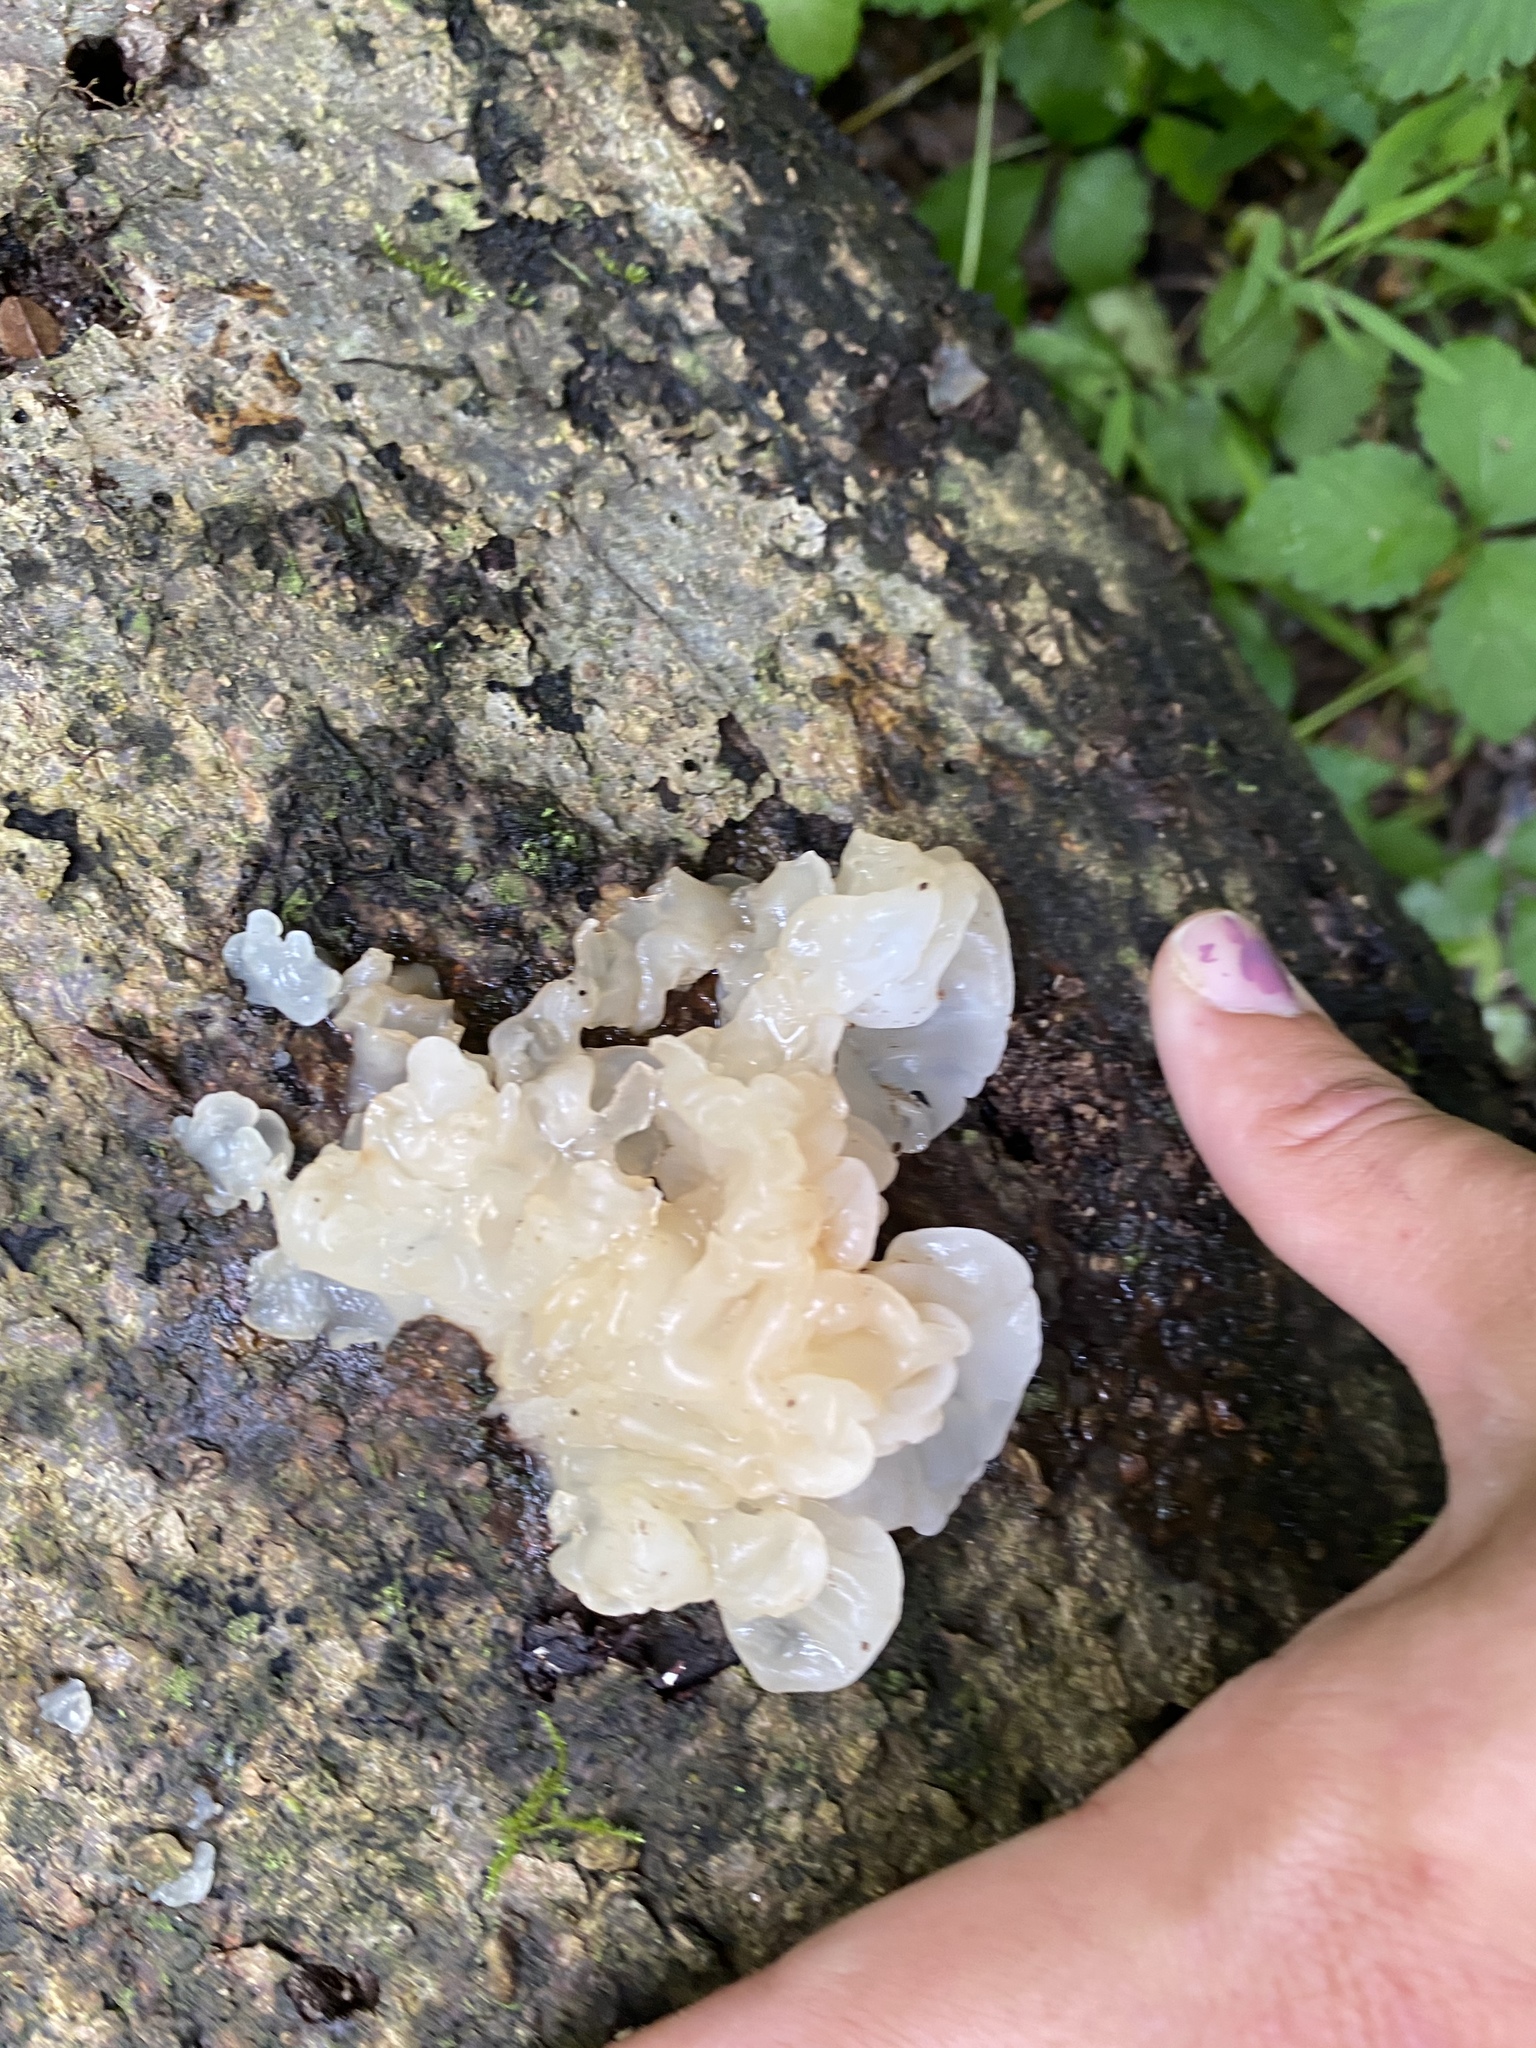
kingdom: Fungi
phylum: Basidiomycota
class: Agaricomycetes
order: Auriculariales
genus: Ductifera
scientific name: Ductifera pululahuana
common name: White jelly fungus
